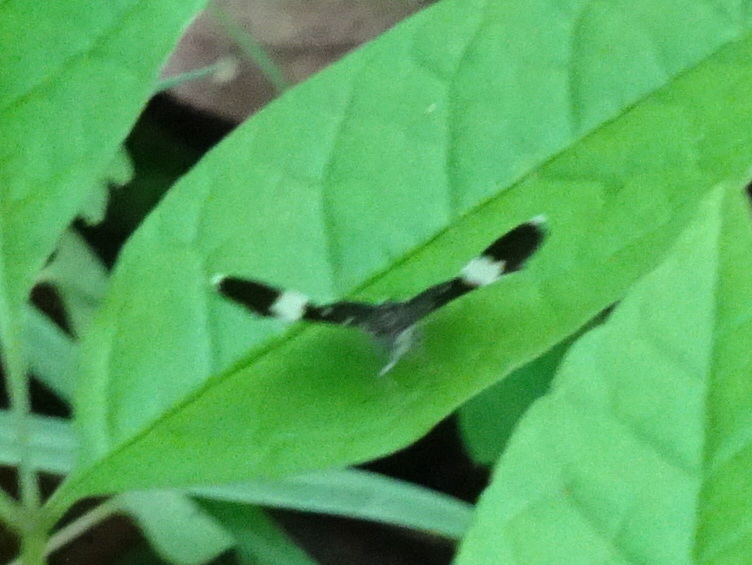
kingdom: Animalia
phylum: Arthropoda
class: Insecta
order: Lepidoptera
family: Geometridae
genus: Trichodezia
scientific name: Trichodezia albovittata
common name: White striped black
